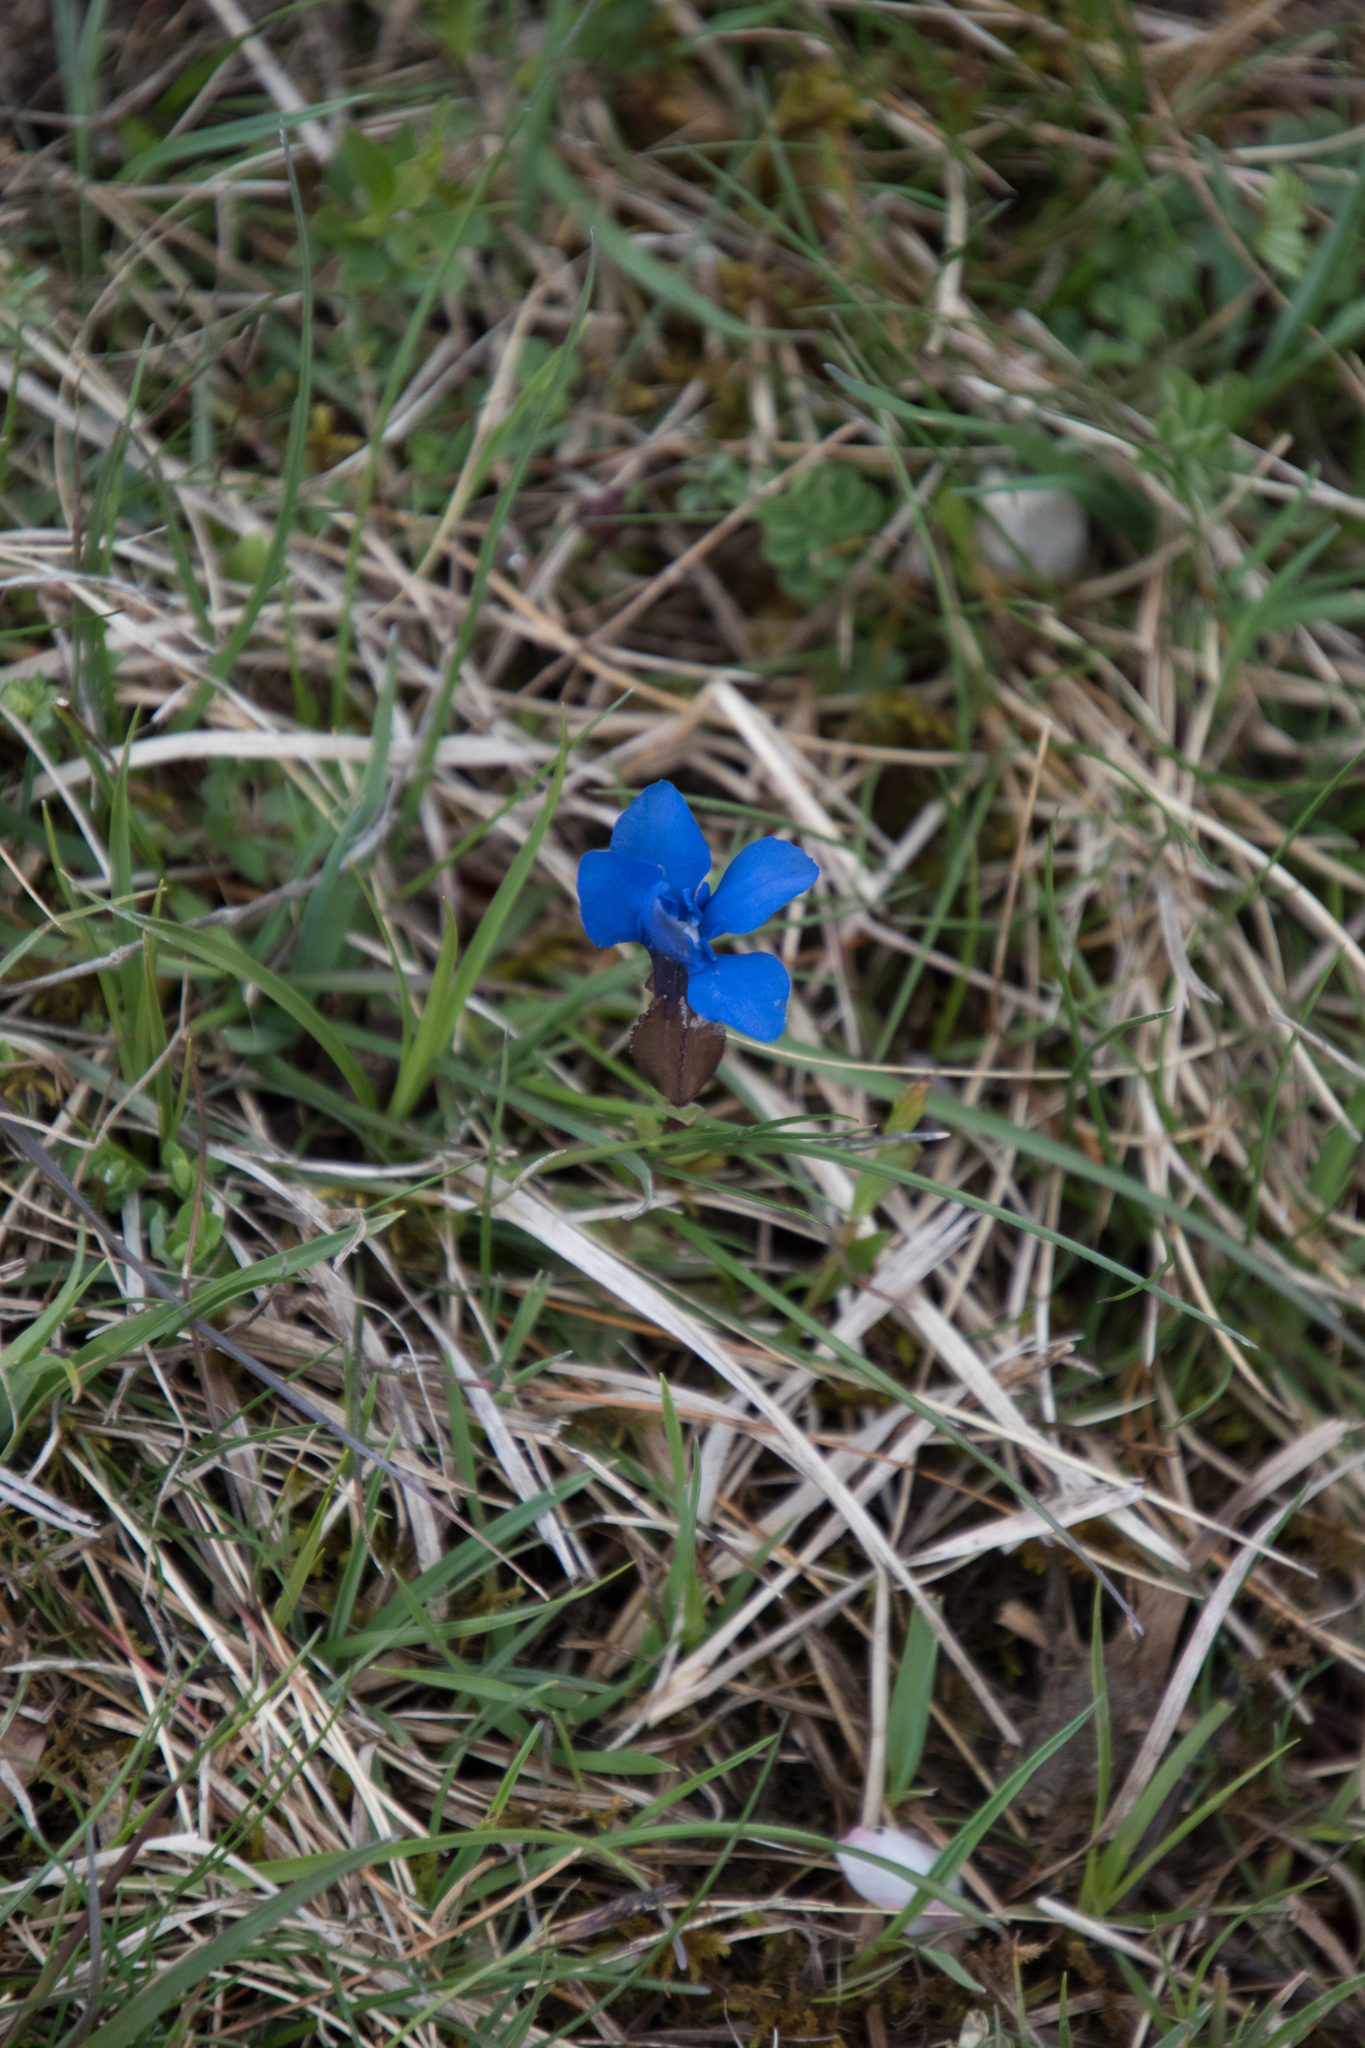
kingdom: Plantae
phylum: Tracheophyta
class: Magnoliopsida
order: Gentianales
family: Gentianaceae
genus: Gentiana
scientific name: Gentiana verna
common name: Spring gentian
